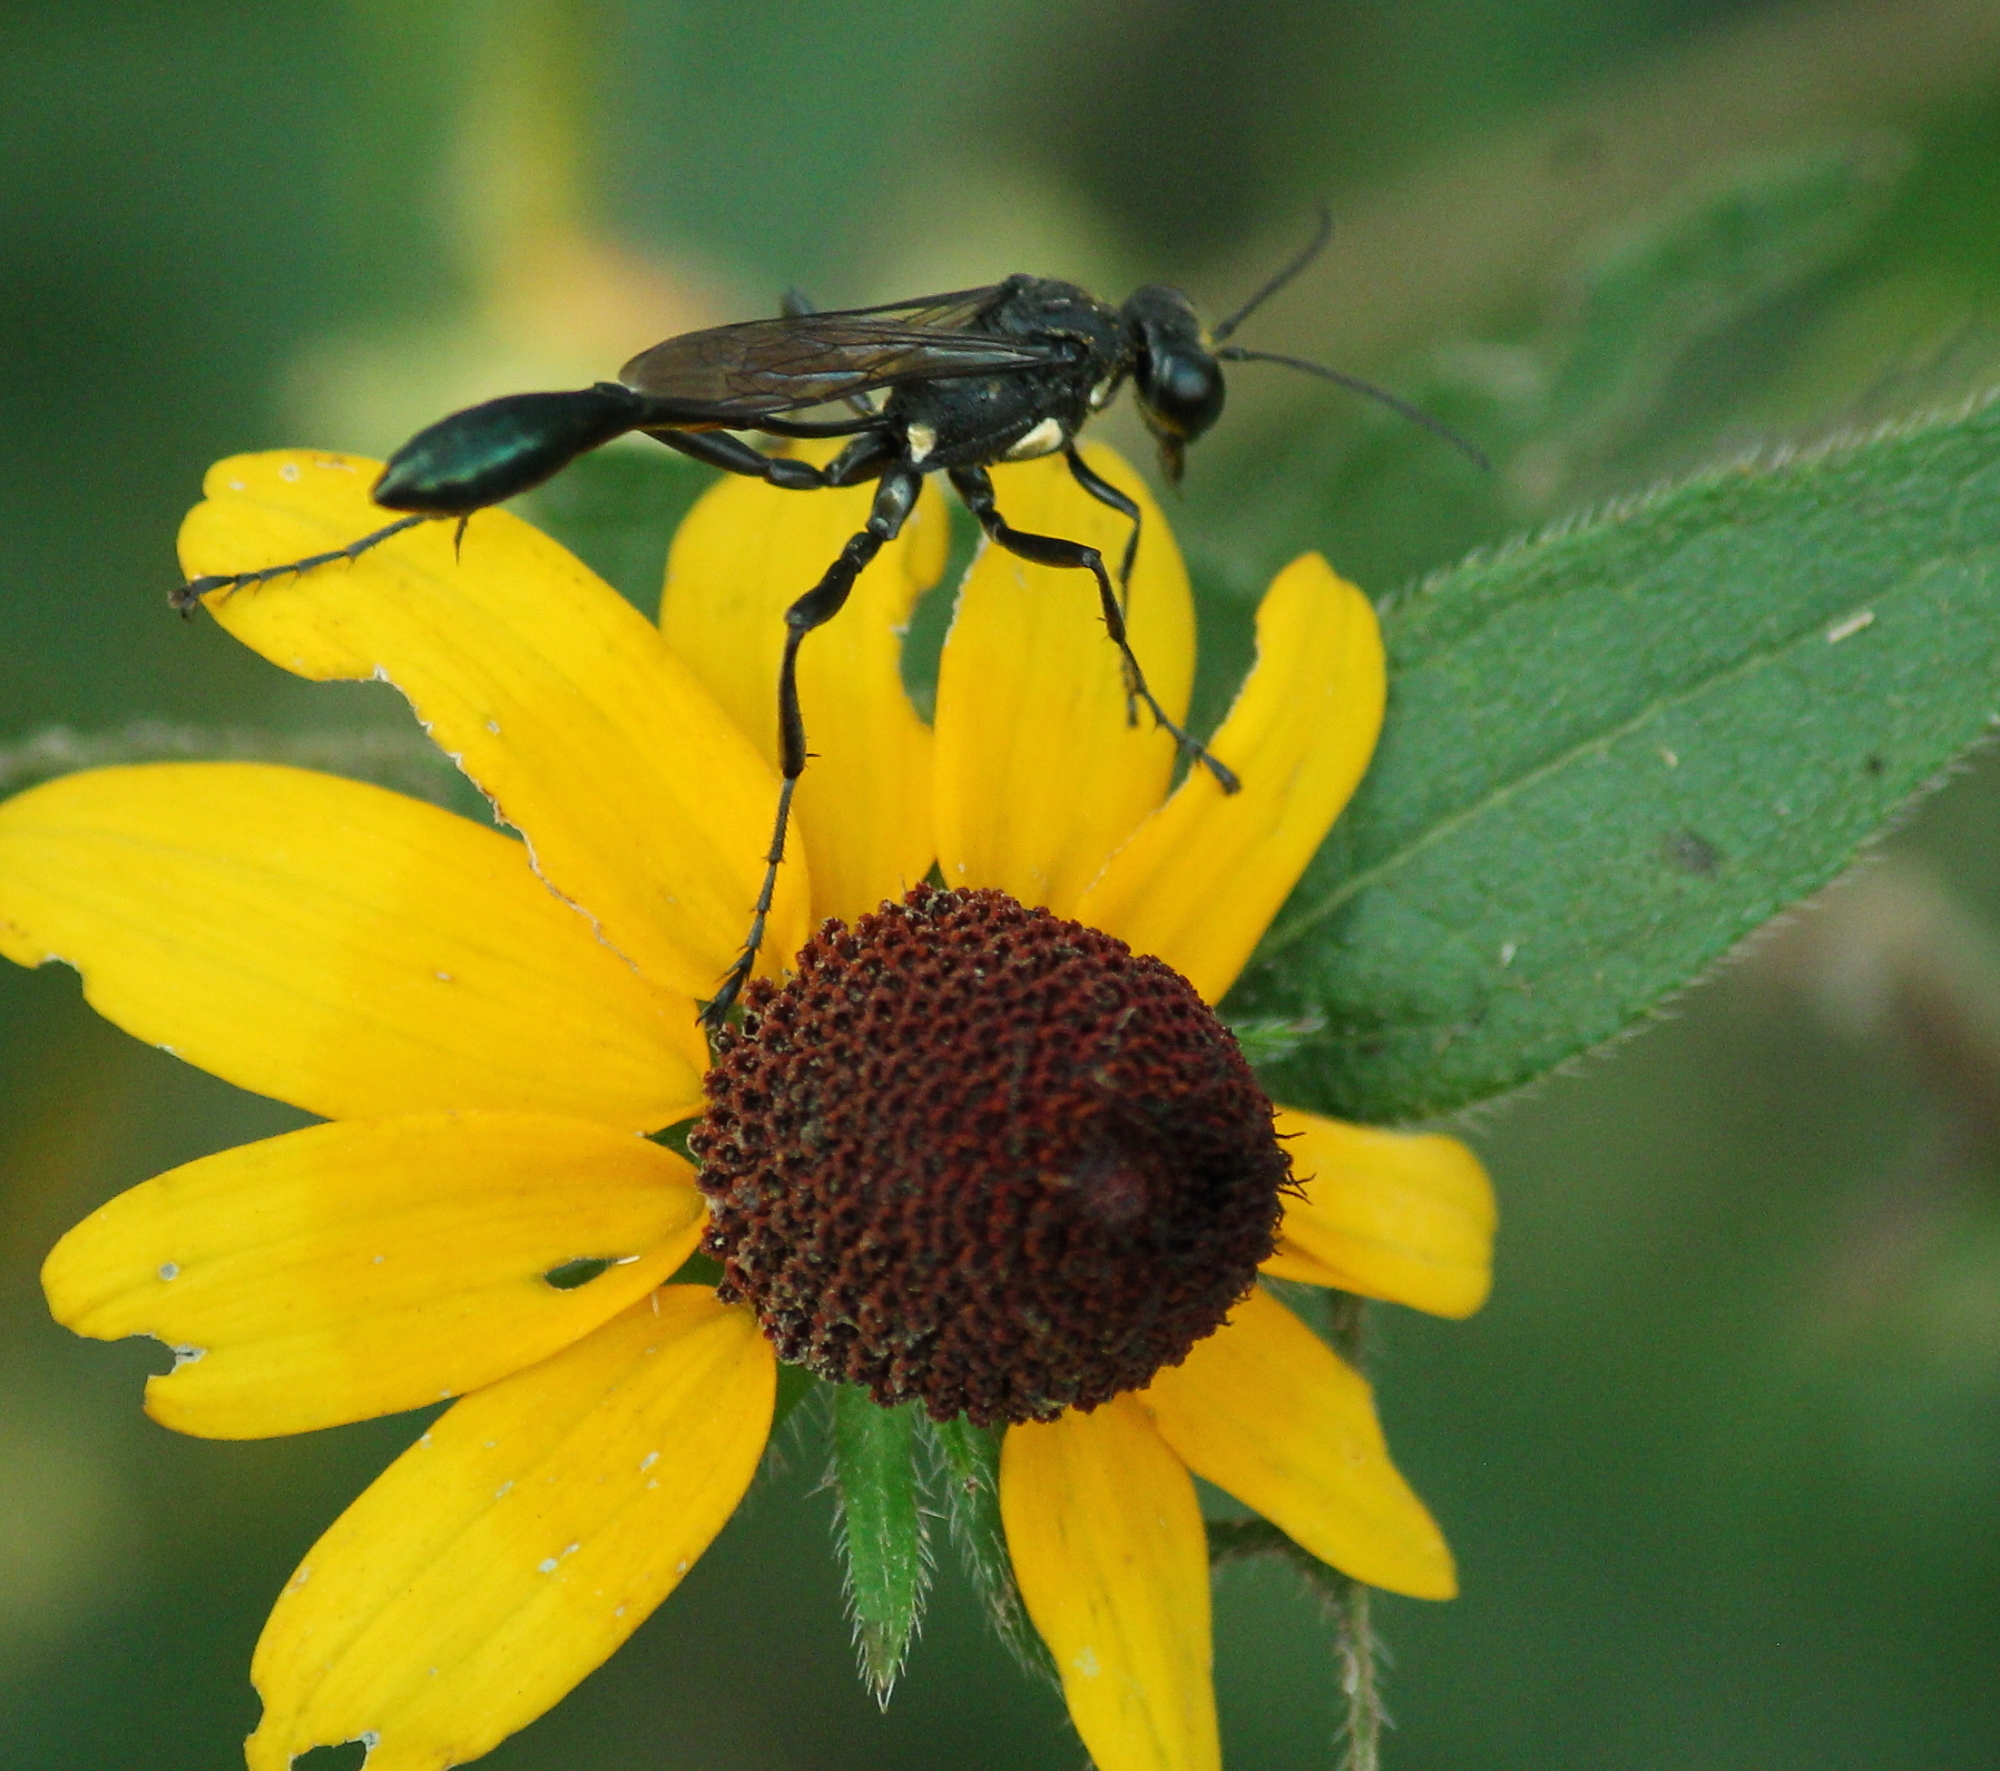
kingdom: Animalia
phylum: Arthropoda
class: Insecta
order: Hymenoptera
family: Sphecidae
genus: Eremnophila
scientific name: Eremnophila aureonotata
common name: Gold-marked thread-waisted wasp
